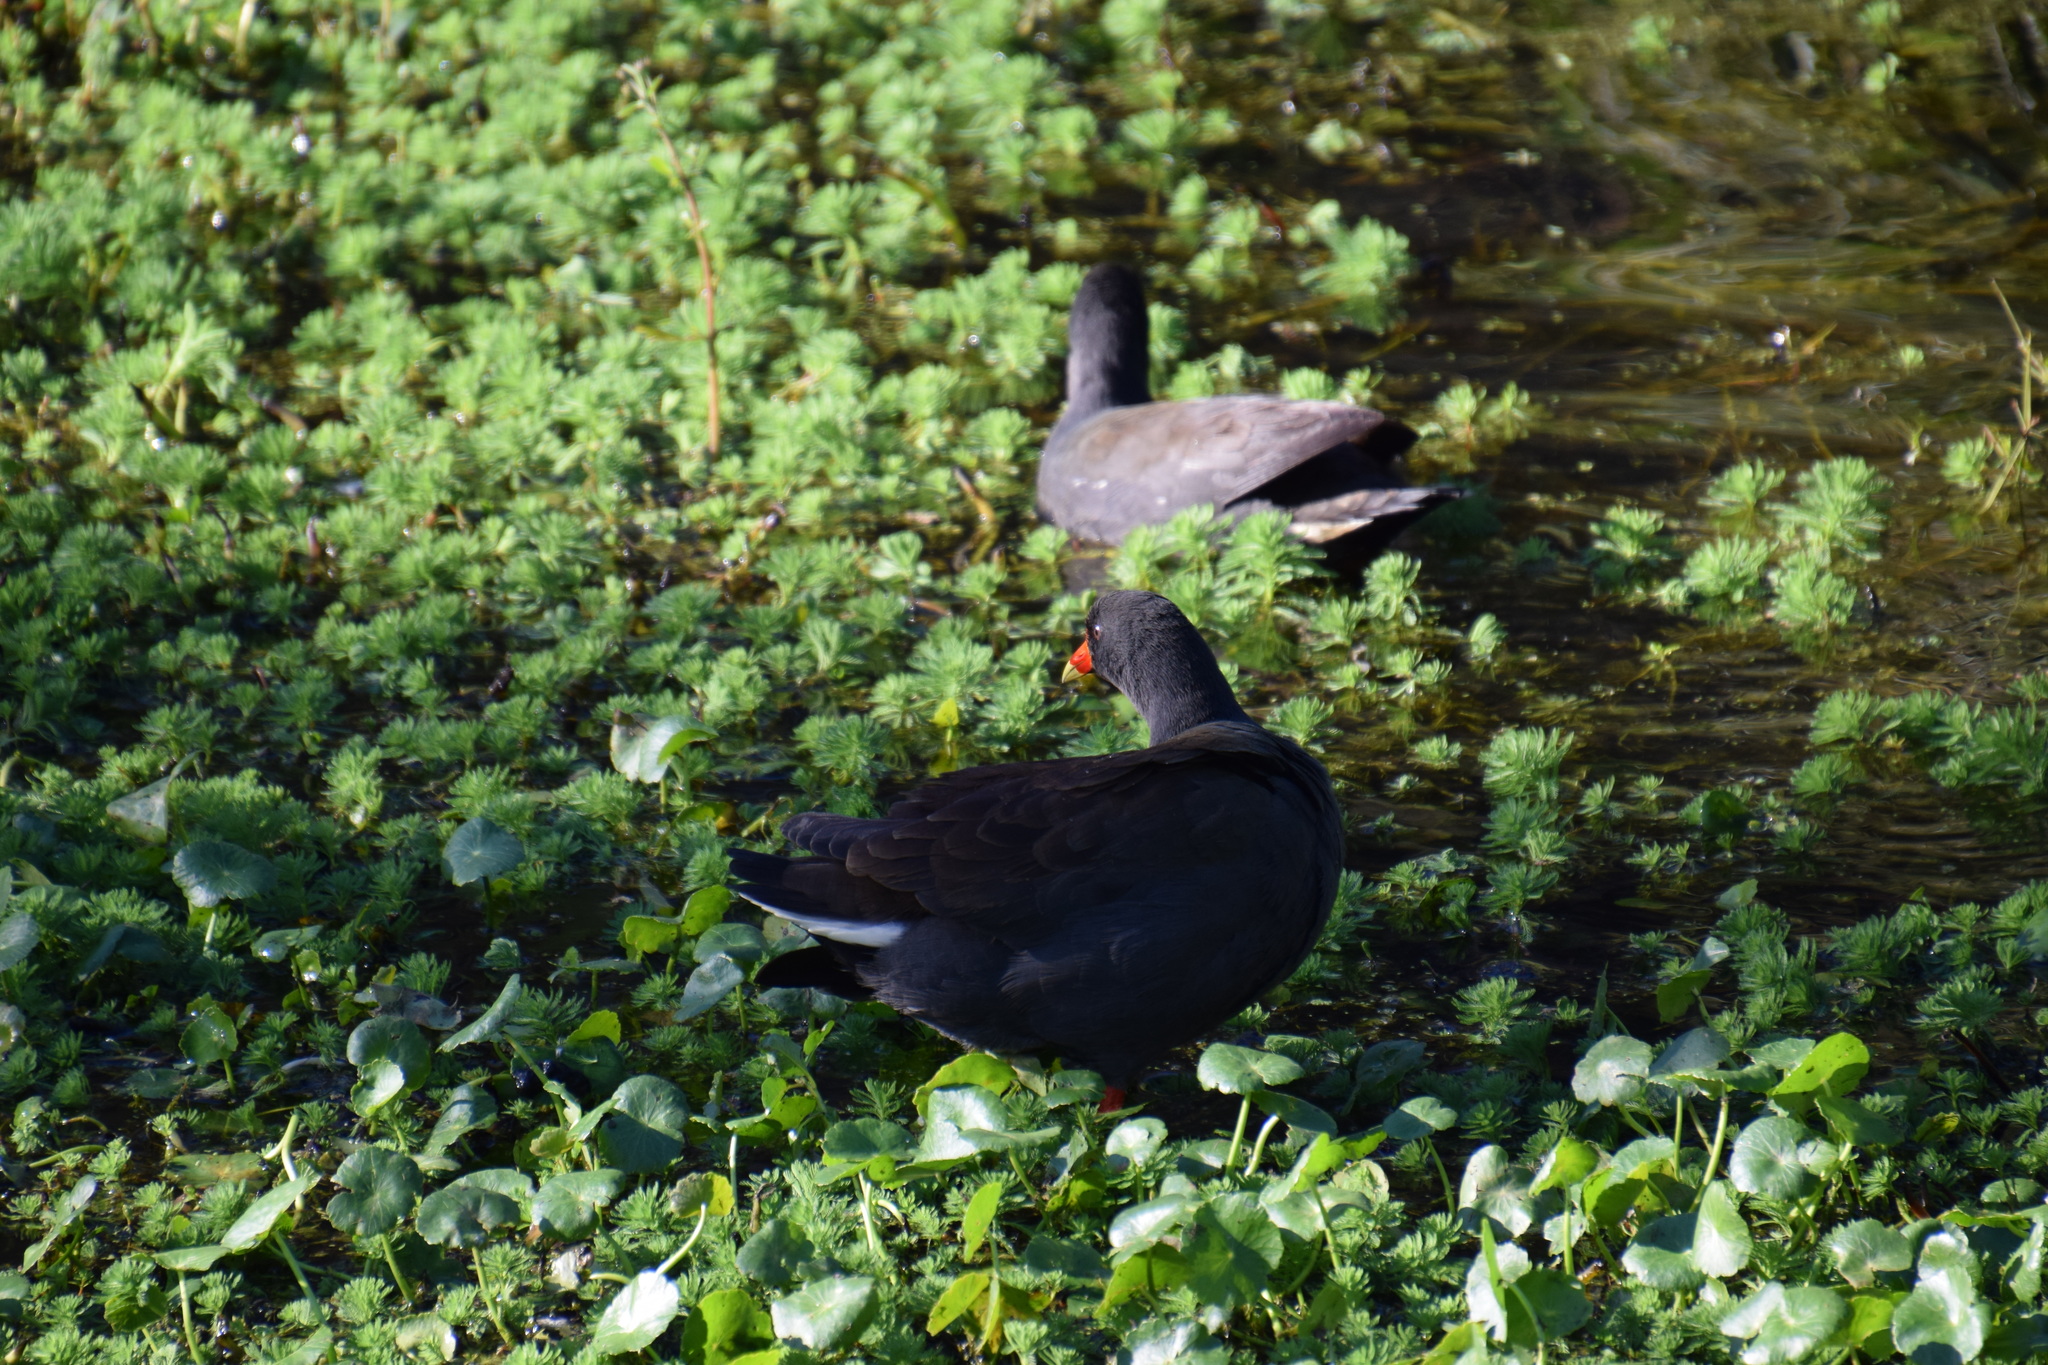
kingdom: Animalia
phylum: Chordata
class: Aves
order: Gruiformes
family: Rallidae
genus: Gallinula
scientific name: Gallinula tenebrosa
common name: Dusky moorhen
